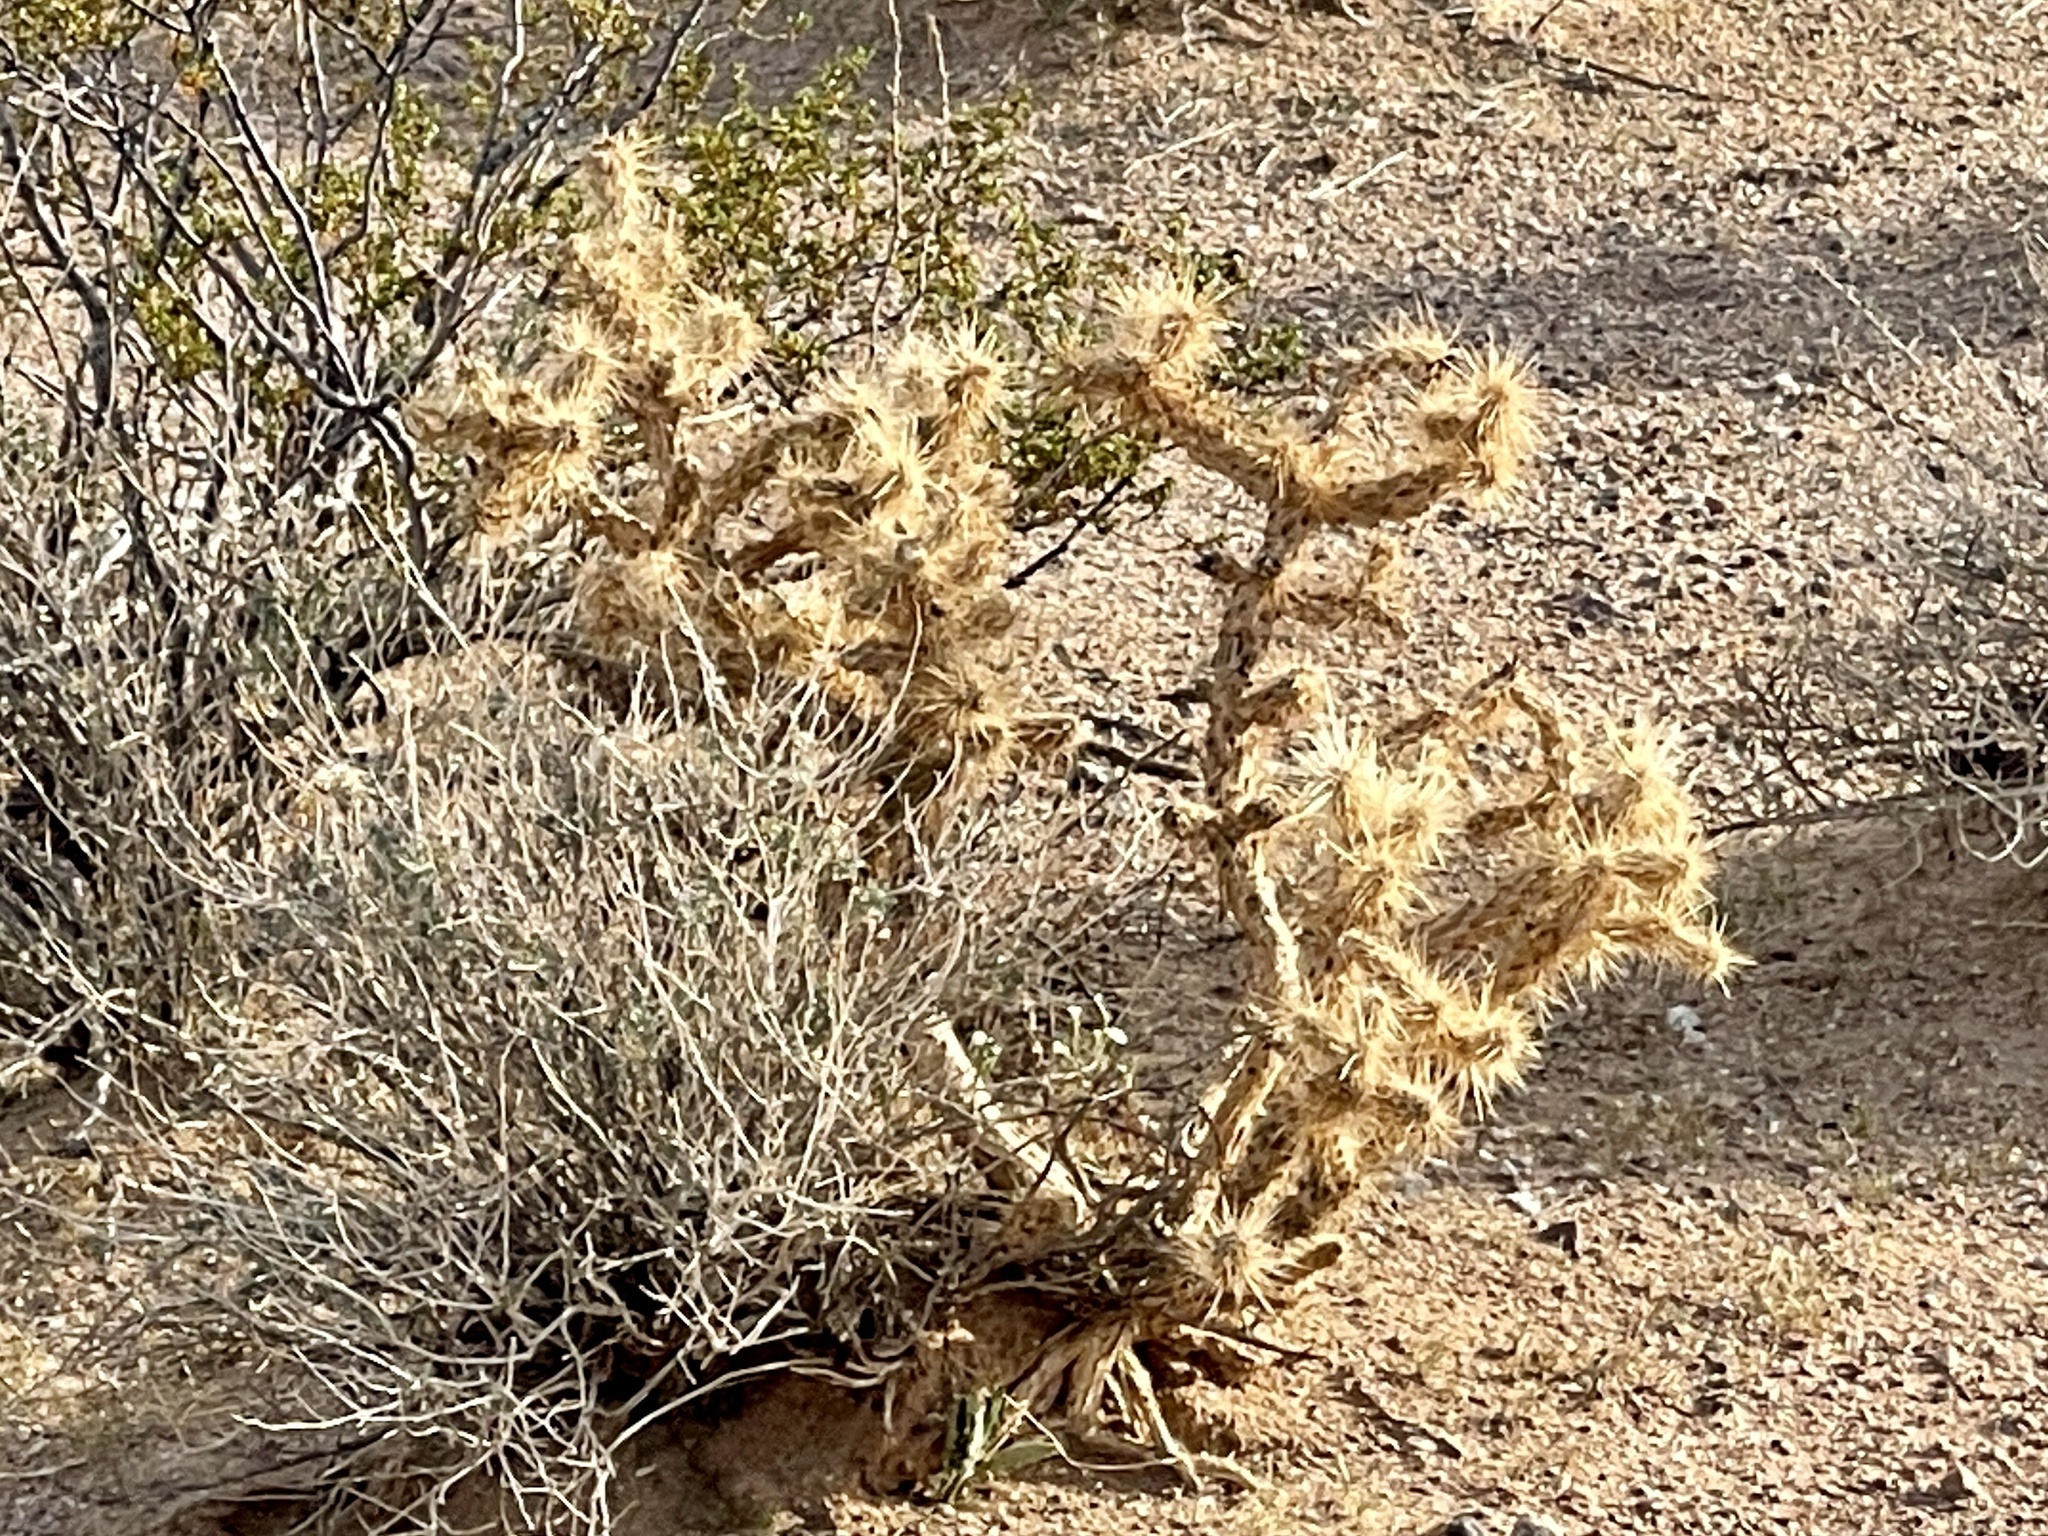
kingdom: Plantae
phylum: Tracheophyta
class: Magnoliopsida
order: Caryophyllales
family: Cactaceae
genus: Cylindropuntia
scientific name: Cylindropuntia echinocarpa
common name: Ground cholla
